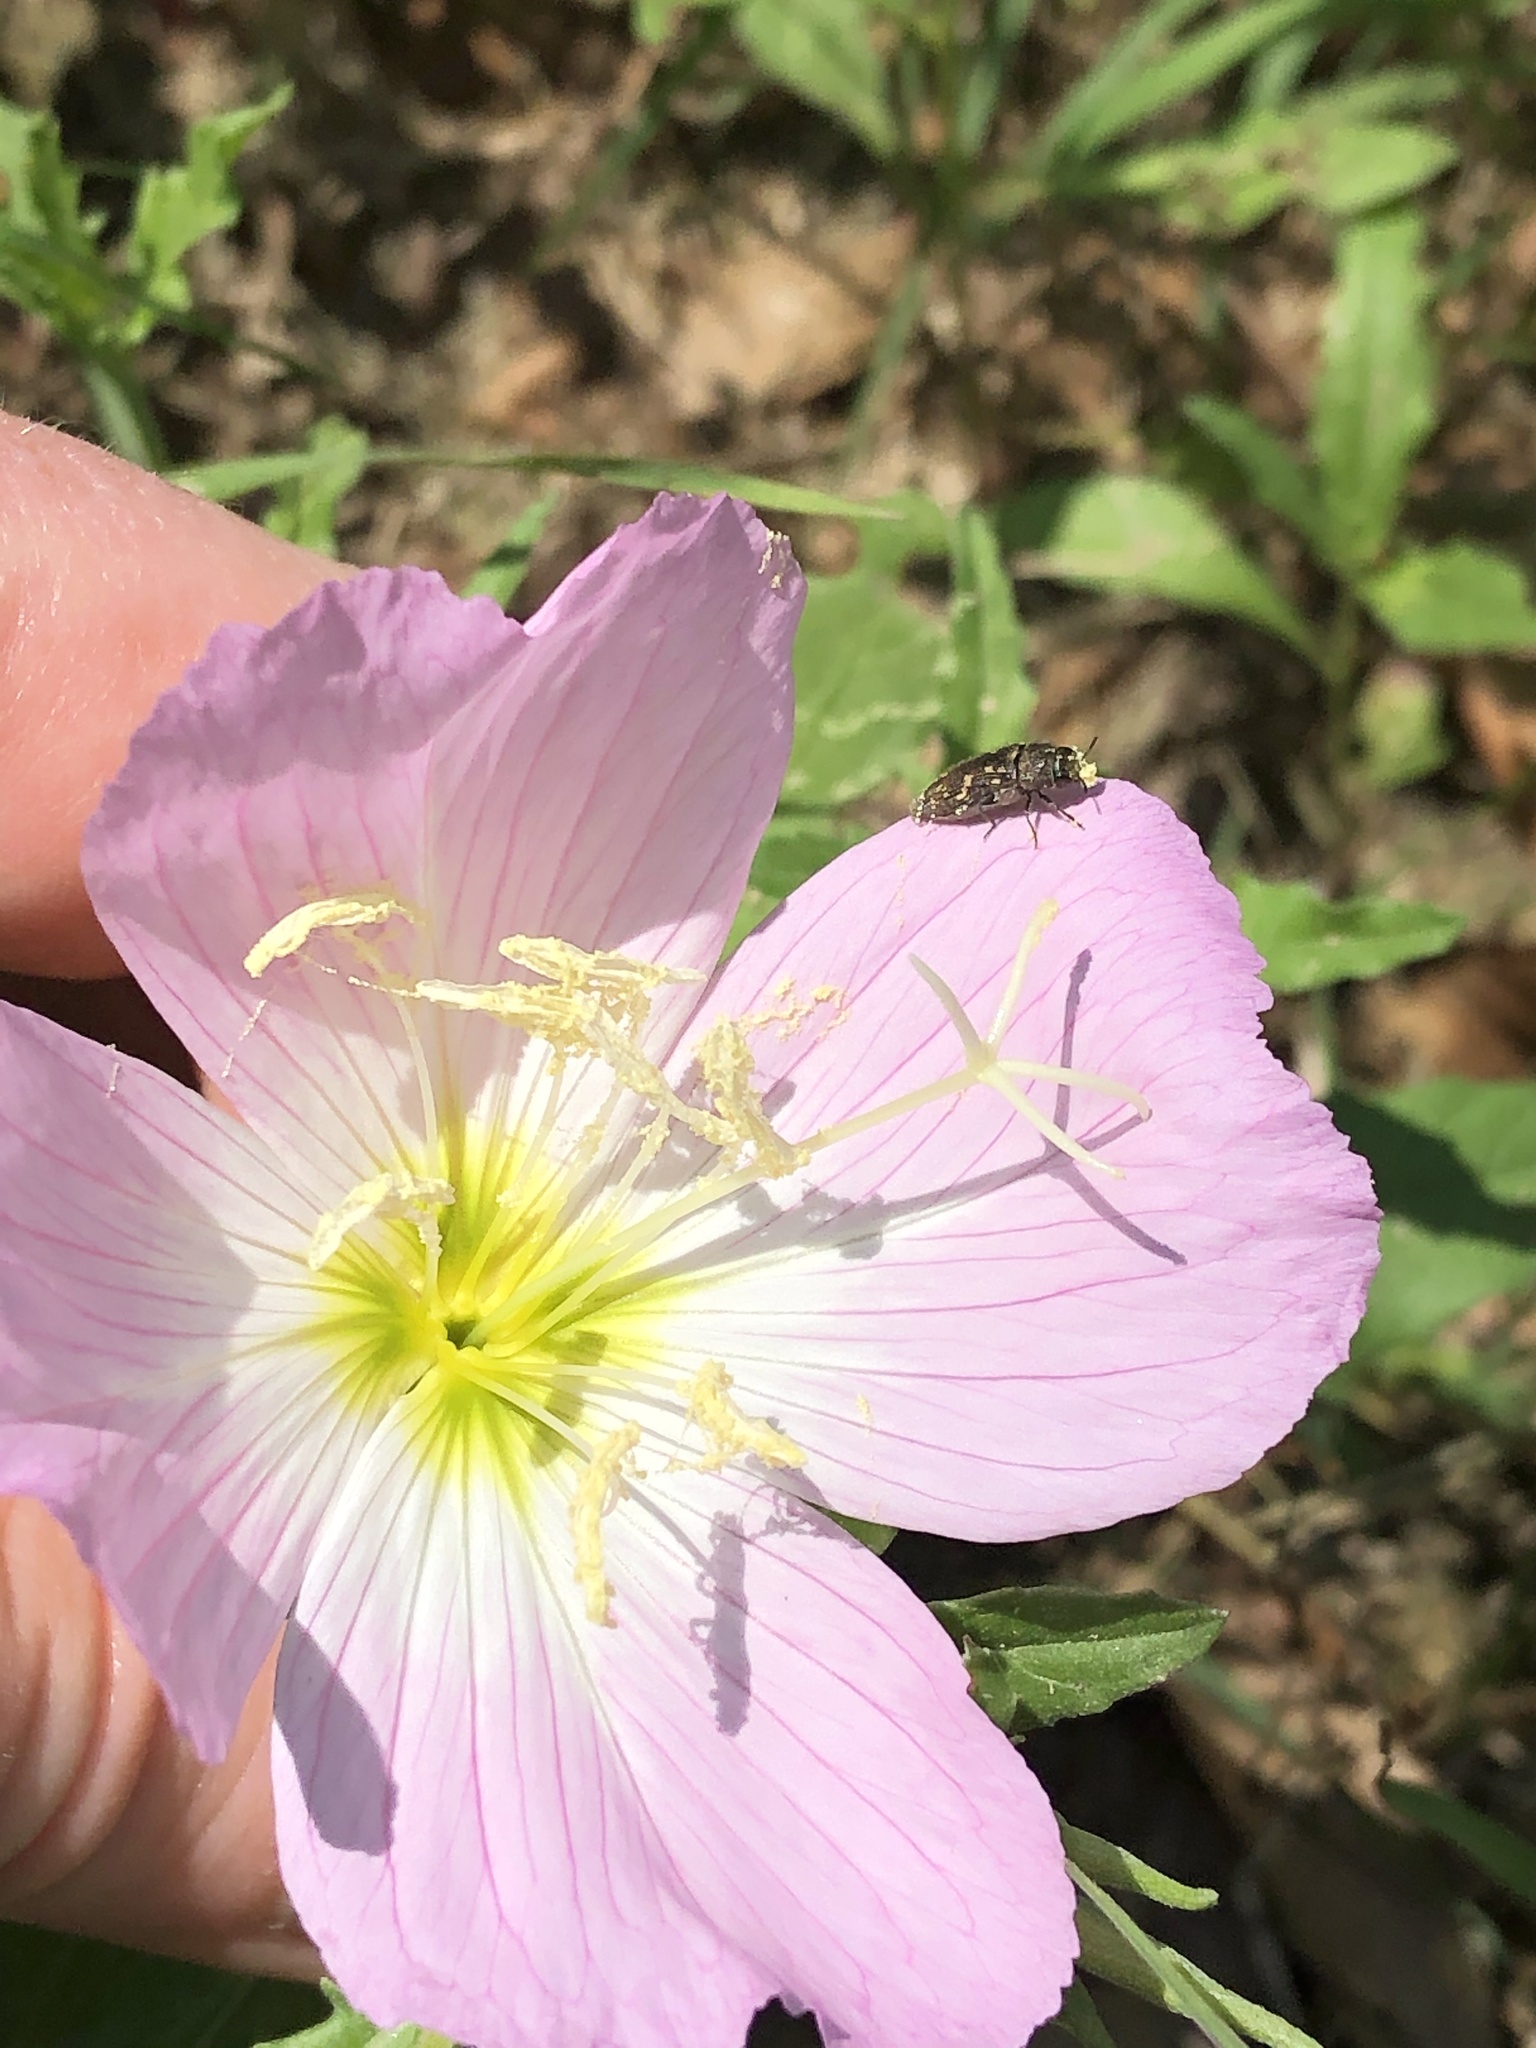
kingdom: Plantae
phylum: Tracheophyta
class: Magnoliopsida
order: Myrtales
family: Onagraceae
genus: Oenothera
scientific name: Oenothera speciosa
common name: White evening-primrose
